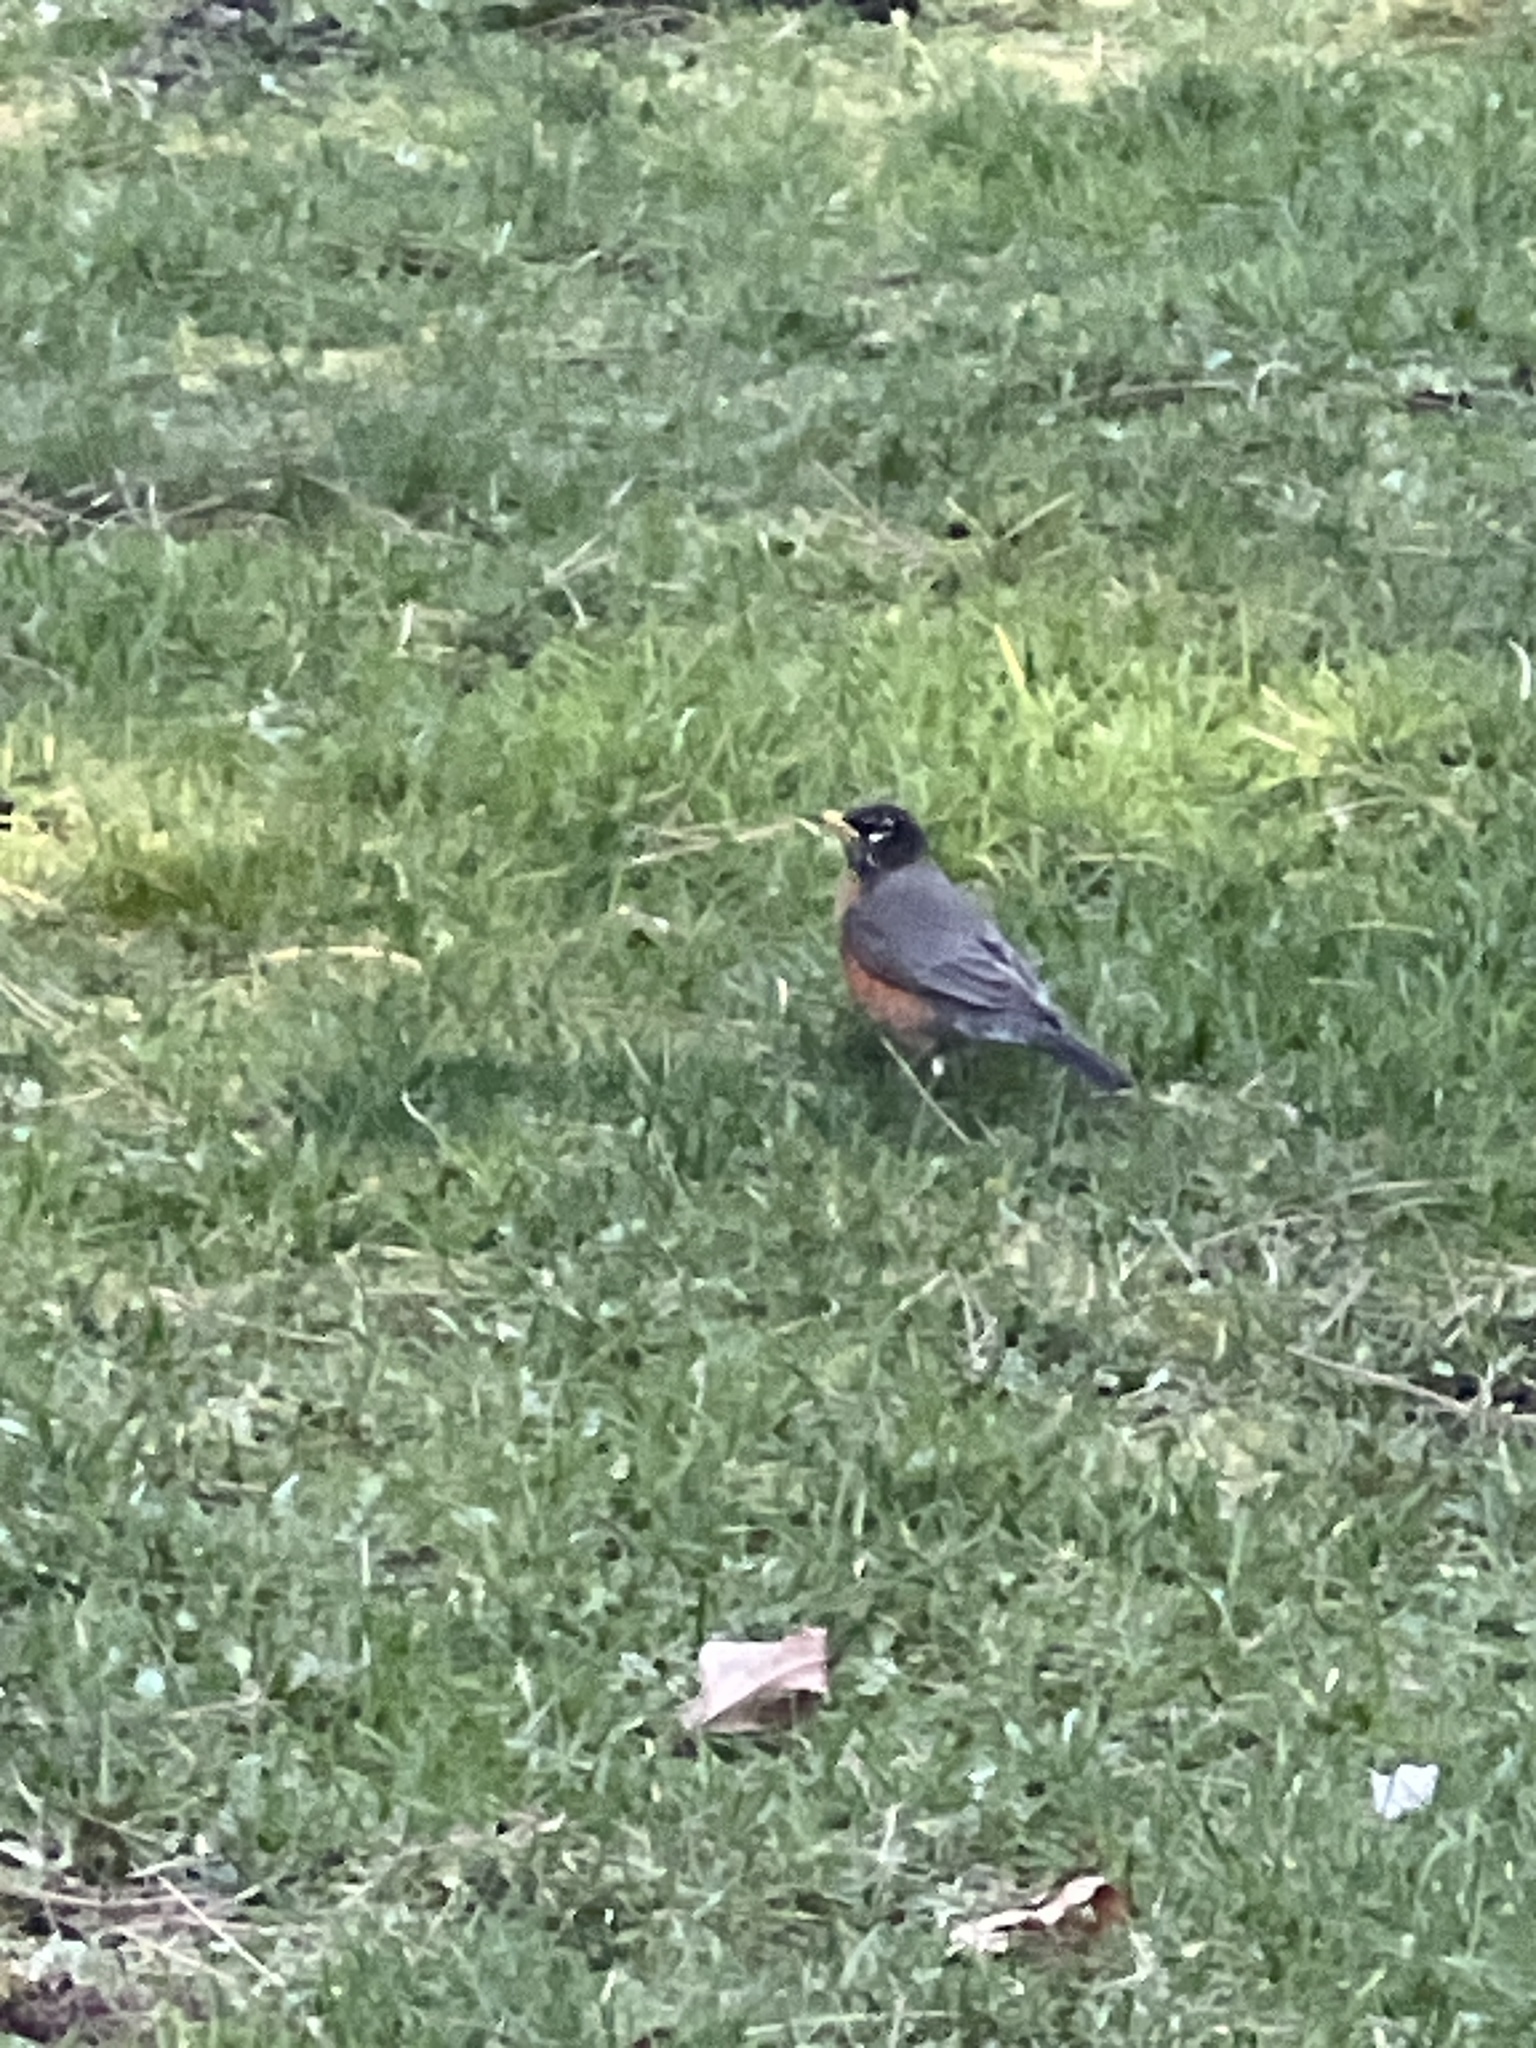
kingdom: Animalia
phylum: Chordata
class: Aves
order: Passeriformes
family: Turdidae
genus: Turdus
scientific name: Turdus migratorius
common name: American robin
